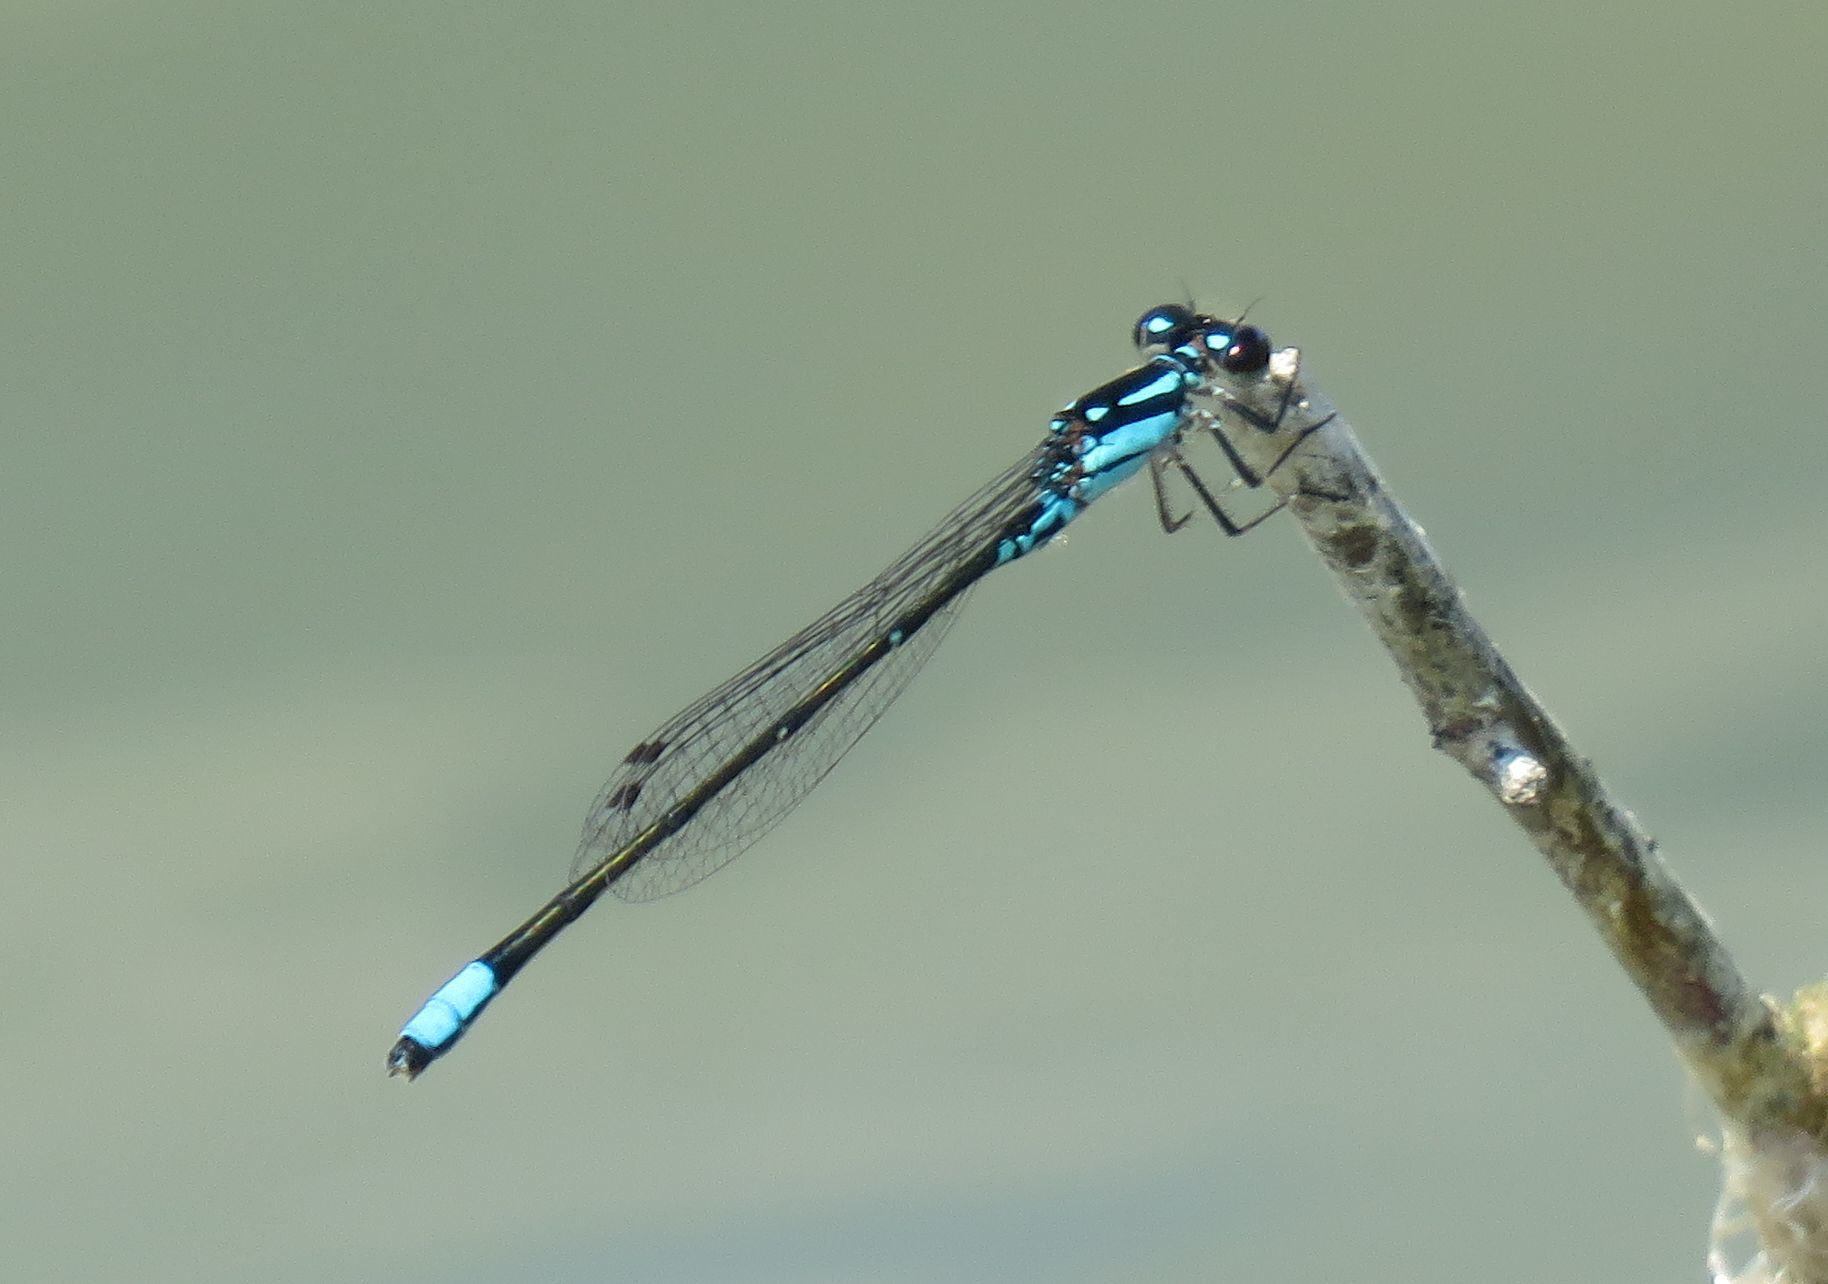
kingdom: Animalia
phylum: Arthropoda
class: Insecta
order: Odonata
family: Coenagrionidae
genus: Enallagma
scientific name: Enallagma geminatum
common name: Skimming bluet
